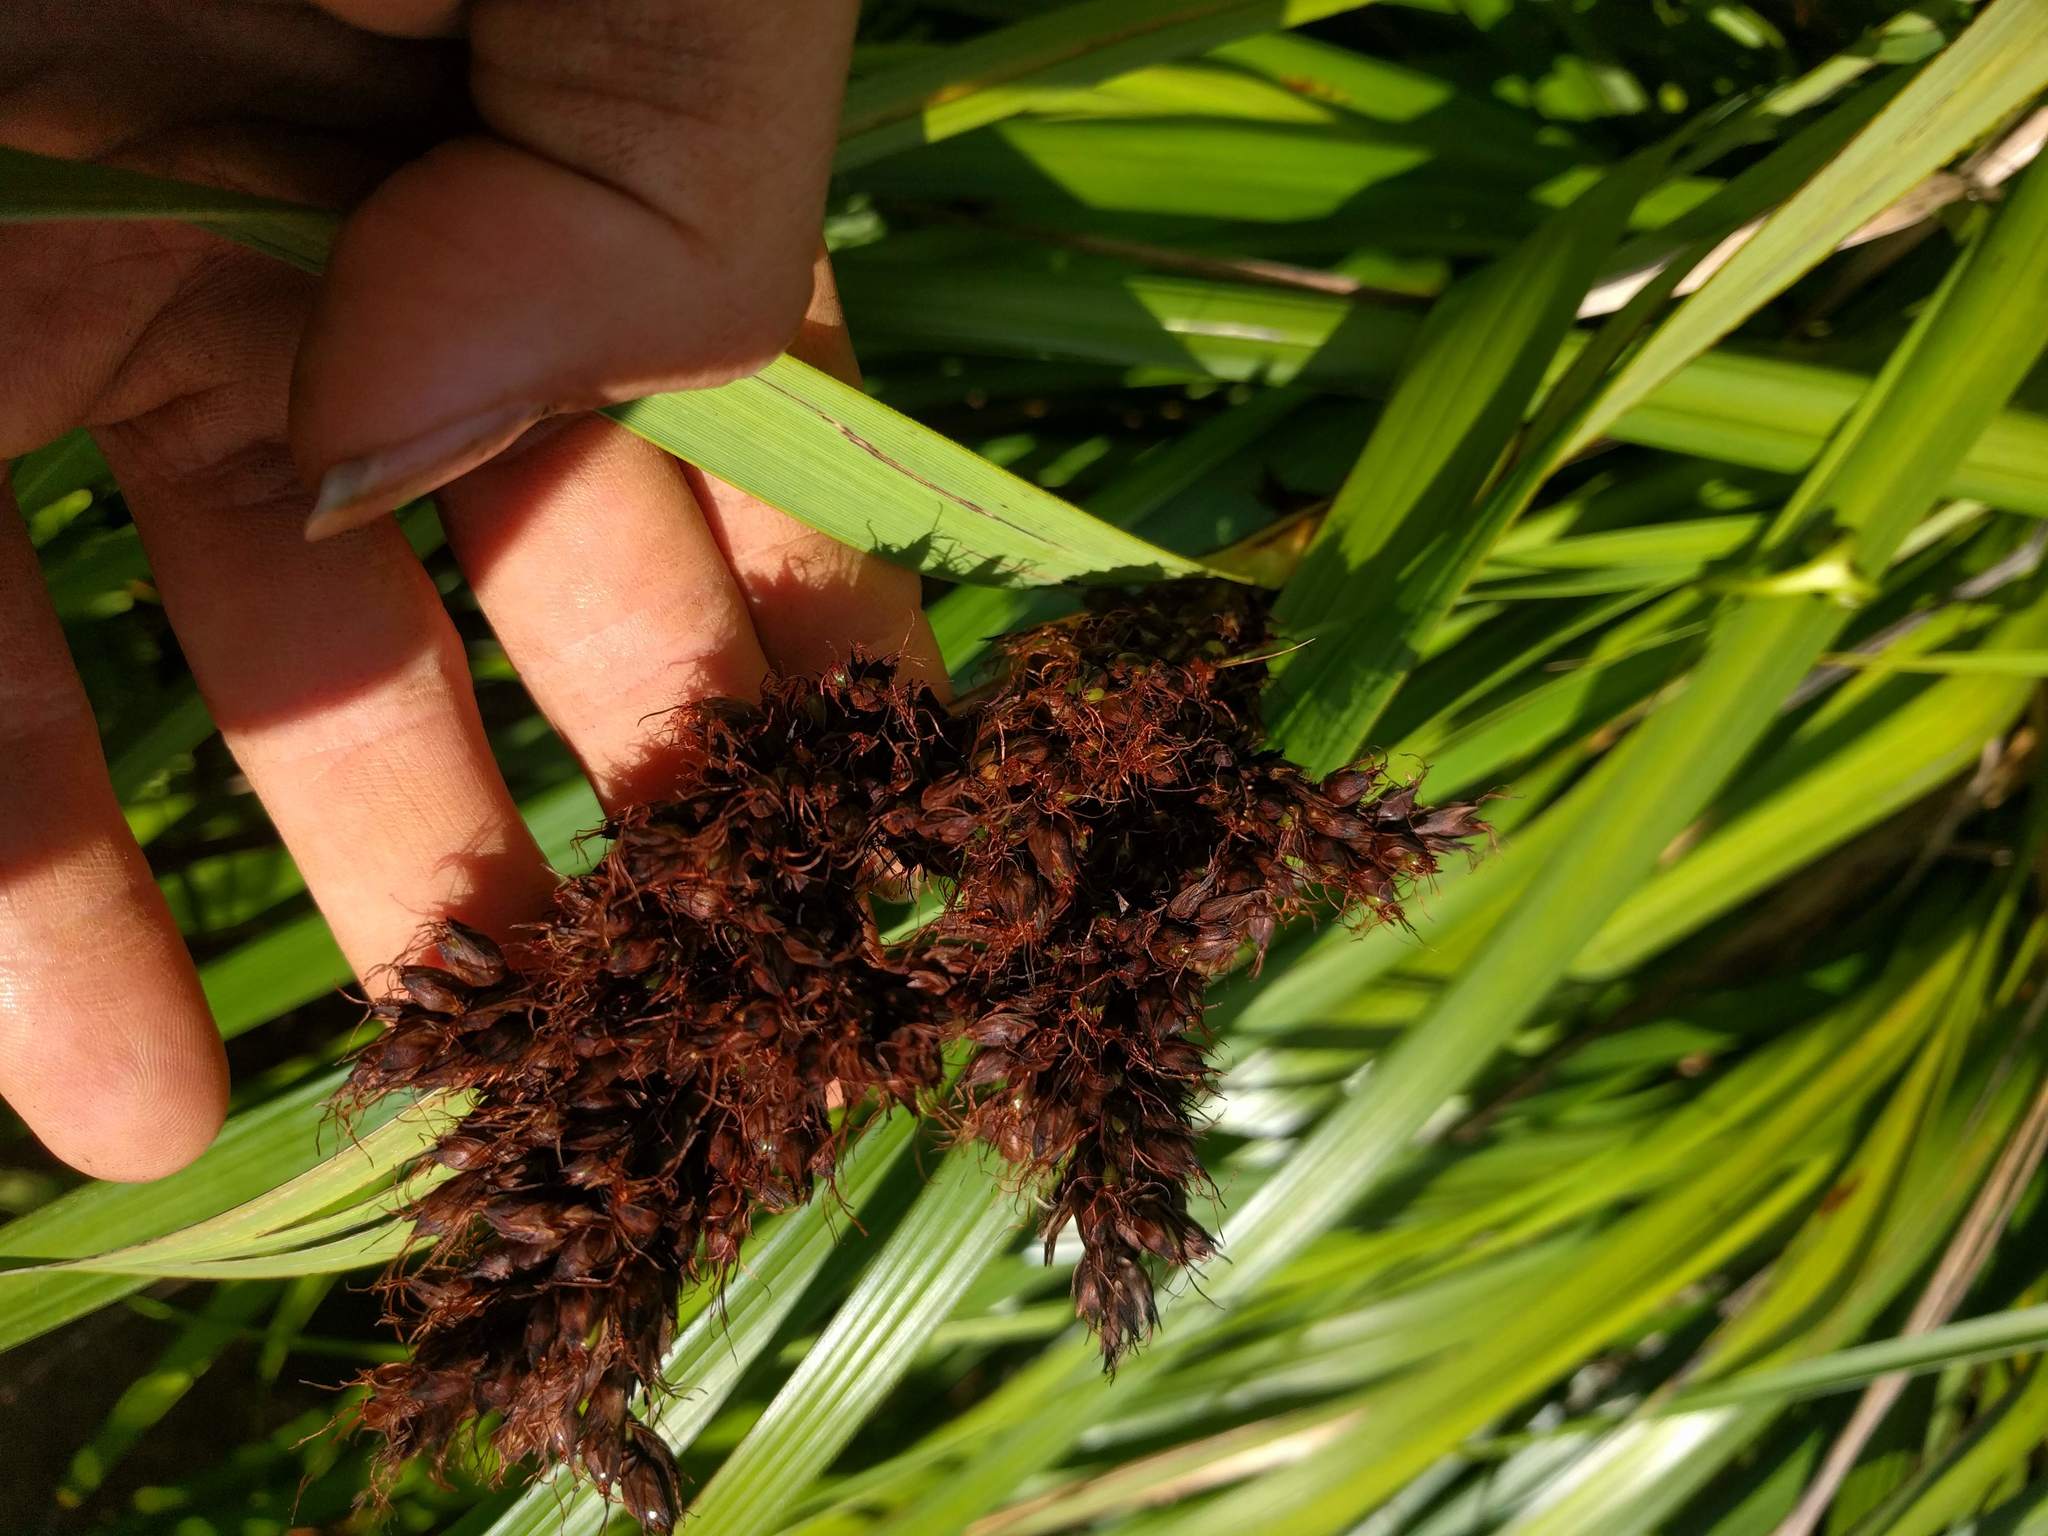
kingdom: Plantae
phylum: Tracheophyta
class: Liliopsida
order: Poales
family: Cyperaceae
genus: Gahnia
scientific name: Gahnia beecheyi
